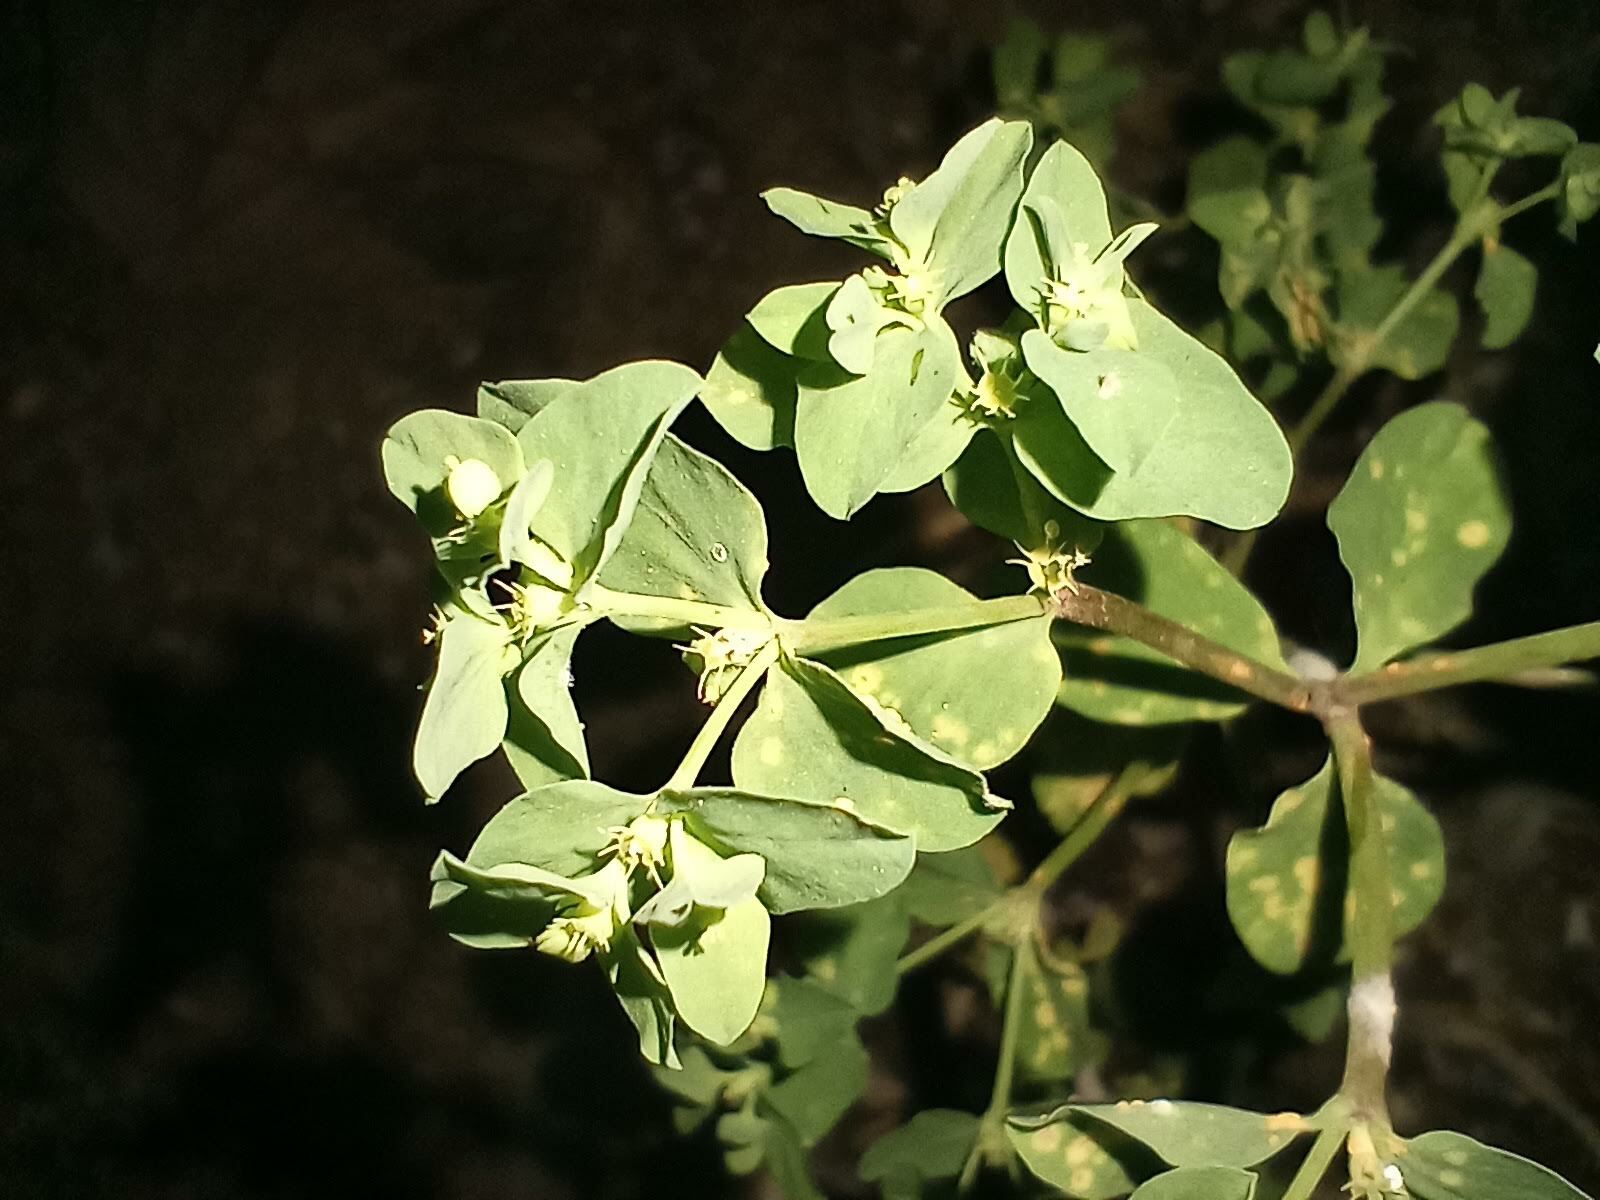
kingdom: Plantae
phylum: Tracheophyta
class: Magnoliopsida
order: Malpighiales
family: Euphorbiaceae
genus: Euphorbia
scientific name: Euphorbia peplus
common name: Petty spurge
